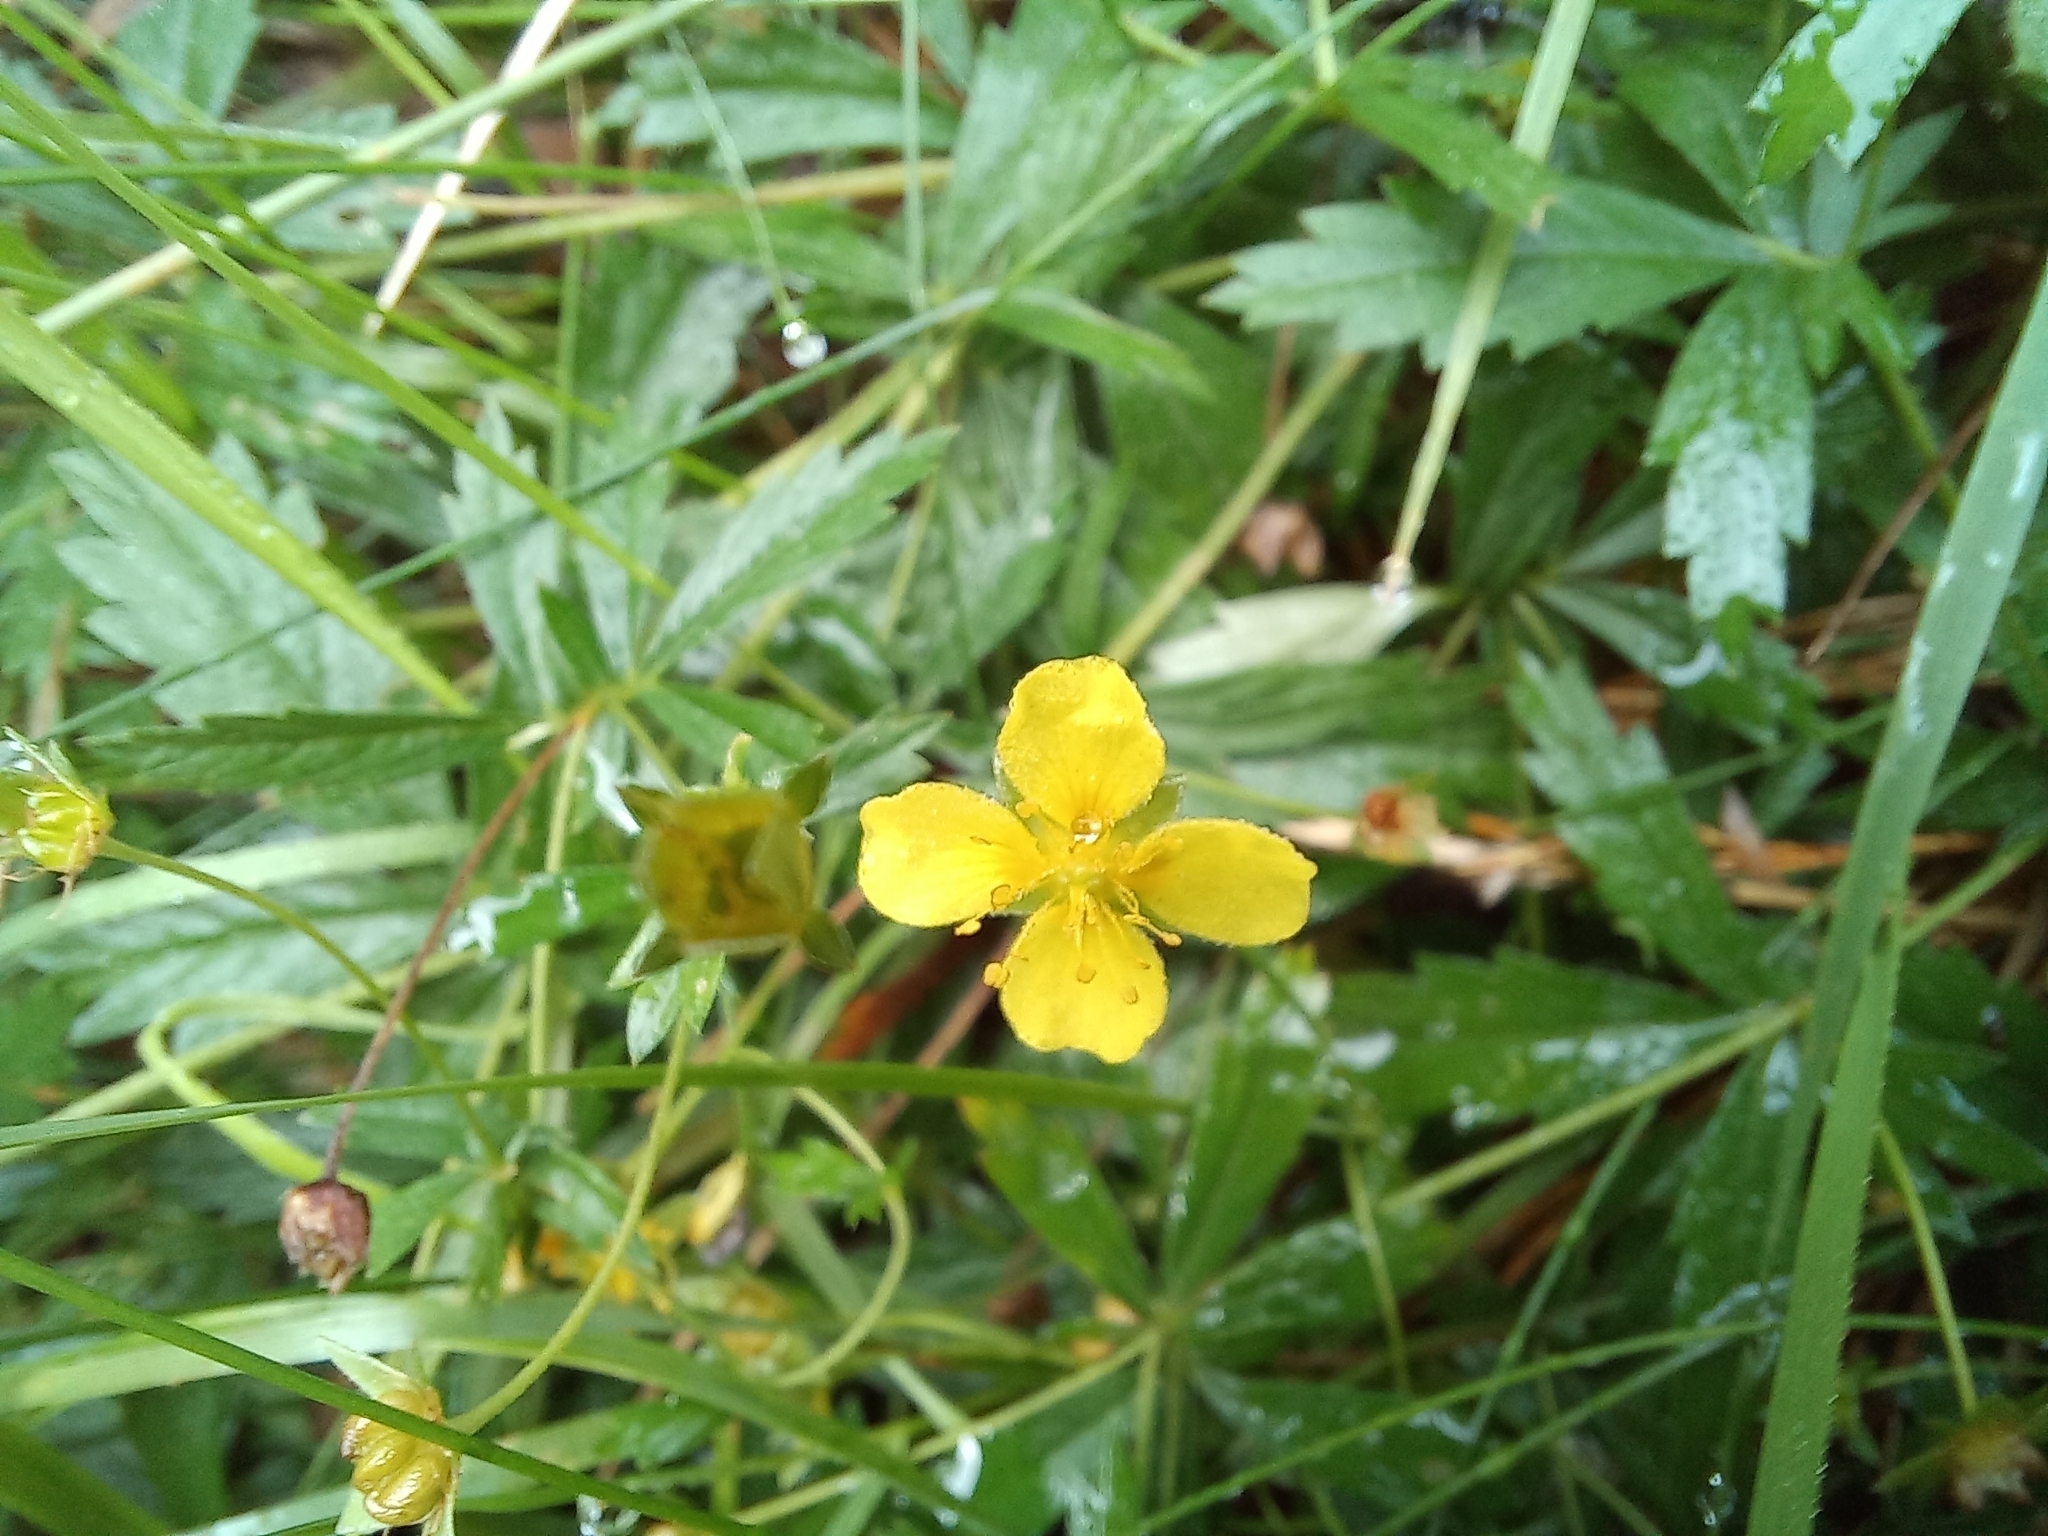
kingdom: Plantae
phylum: Tracheophyta
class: Magnoliopsida
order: Rosales
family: Rosaceae
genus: Potentilla
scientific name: Potentilla erecta
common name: Tormentil
